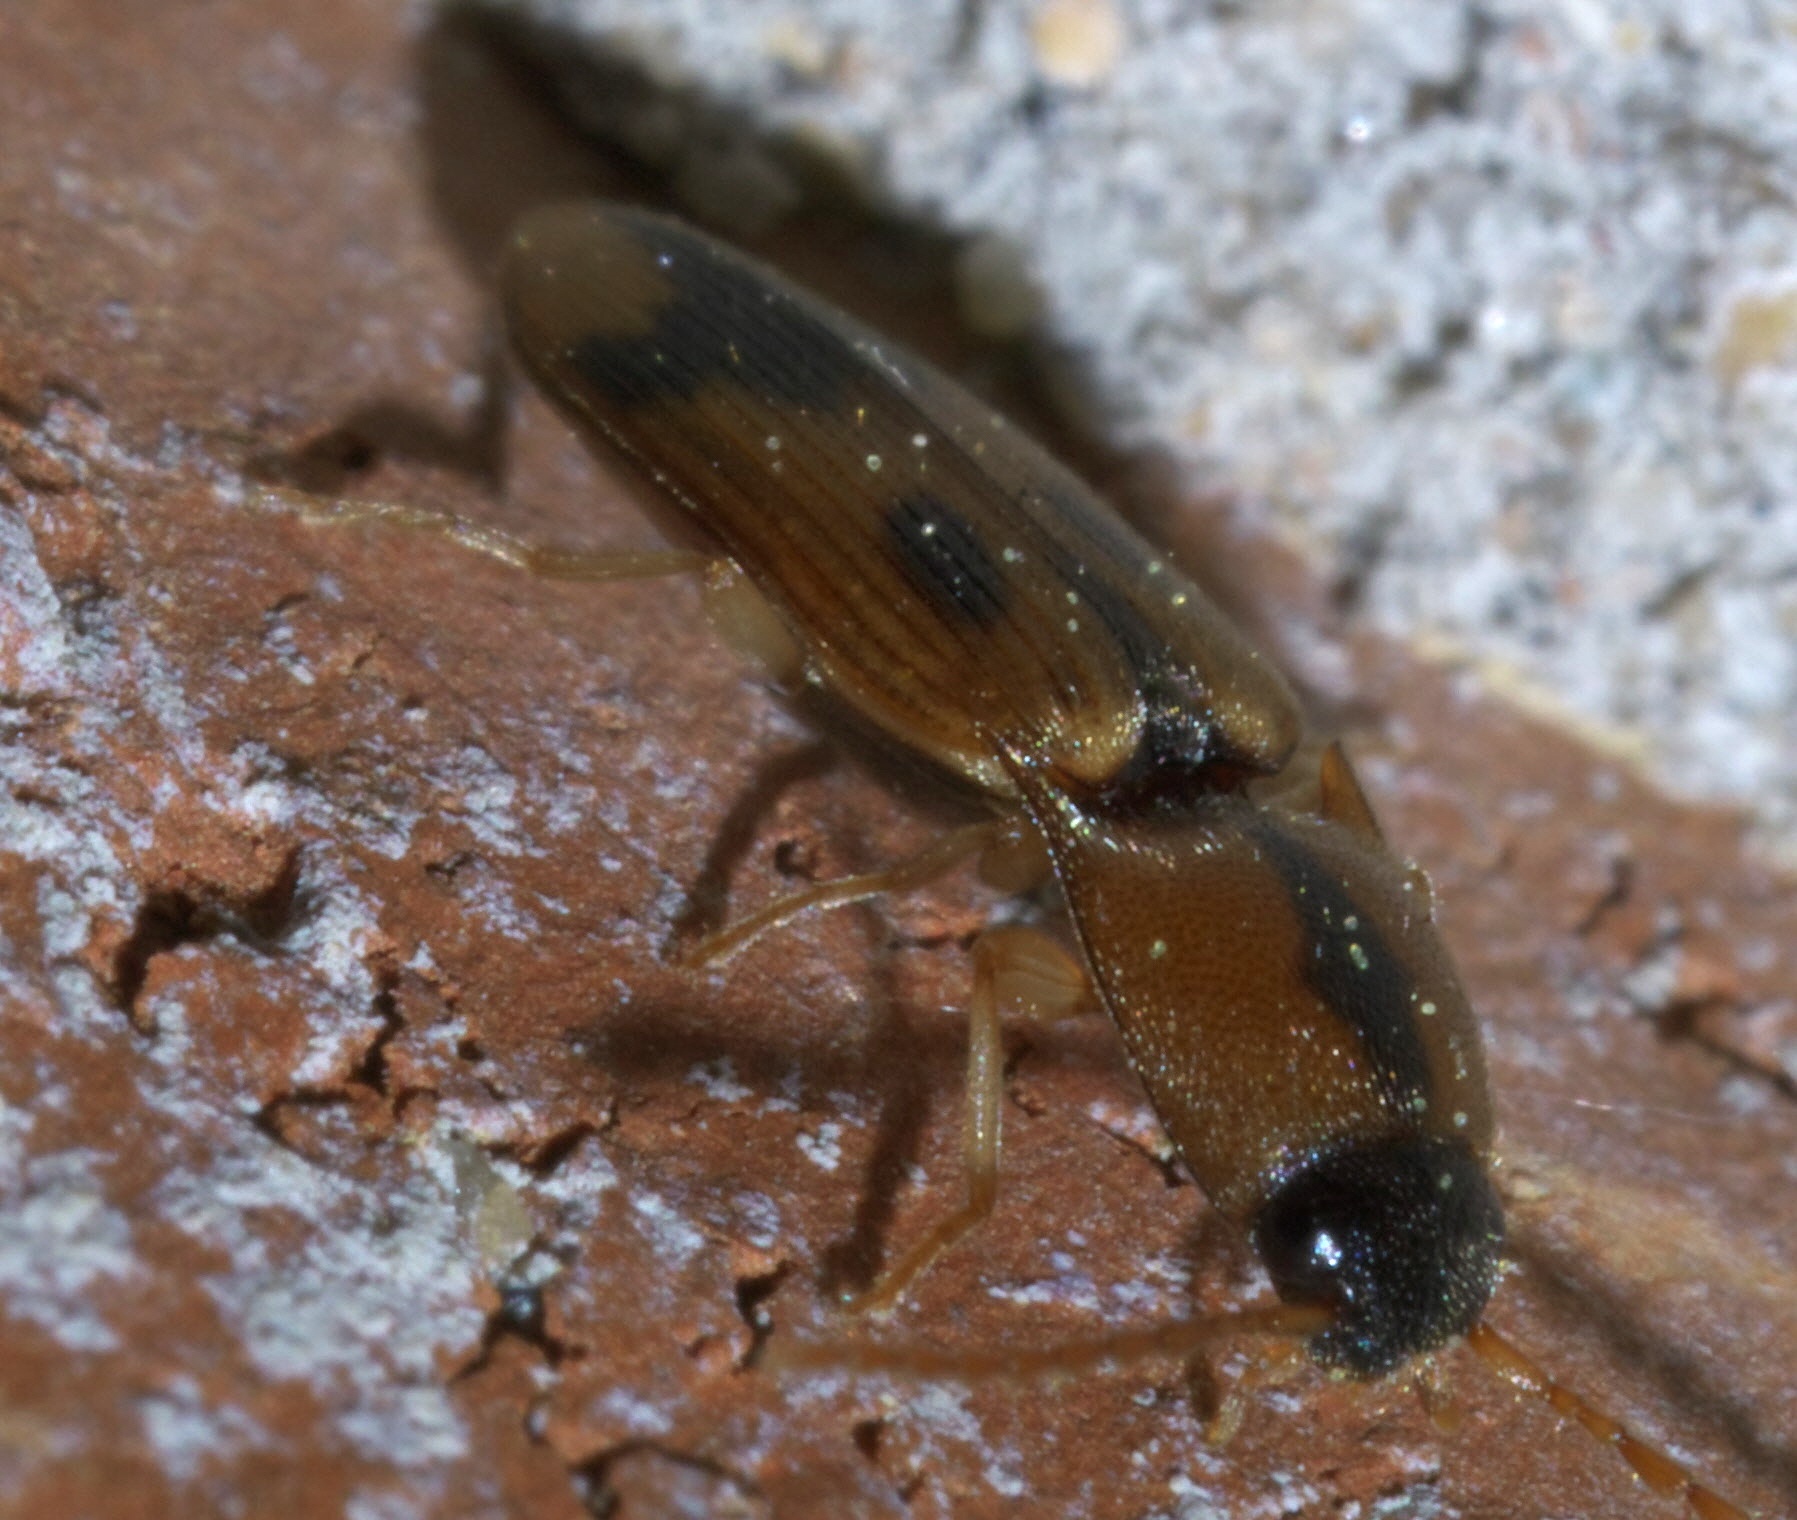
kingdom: Animalia
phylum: Arthropoda
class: Insecta
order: Coleoptera
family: Elateridae
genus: Aeolus
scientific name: Aeolus mellillus
